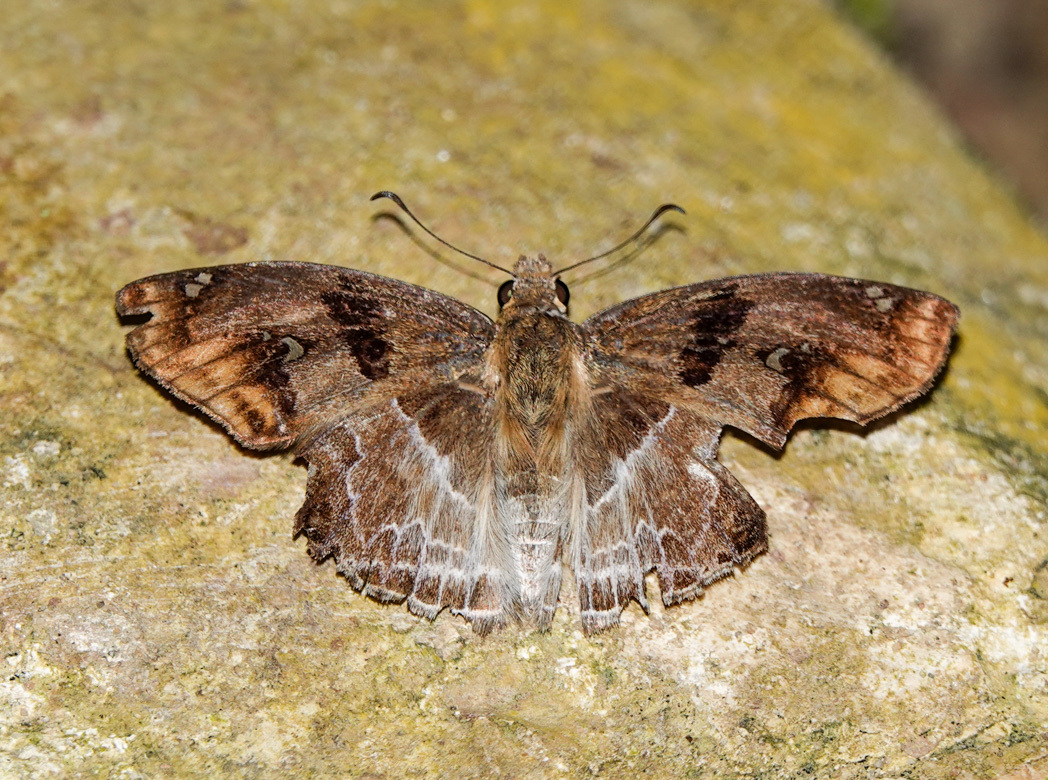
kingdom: Animalia
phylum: Arthropoda
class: Insecta
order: Lepidoptera
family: Hesperiidae
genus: Odontoptilum
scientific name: Odontoptilum angulata
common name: Chestnut banded angle
